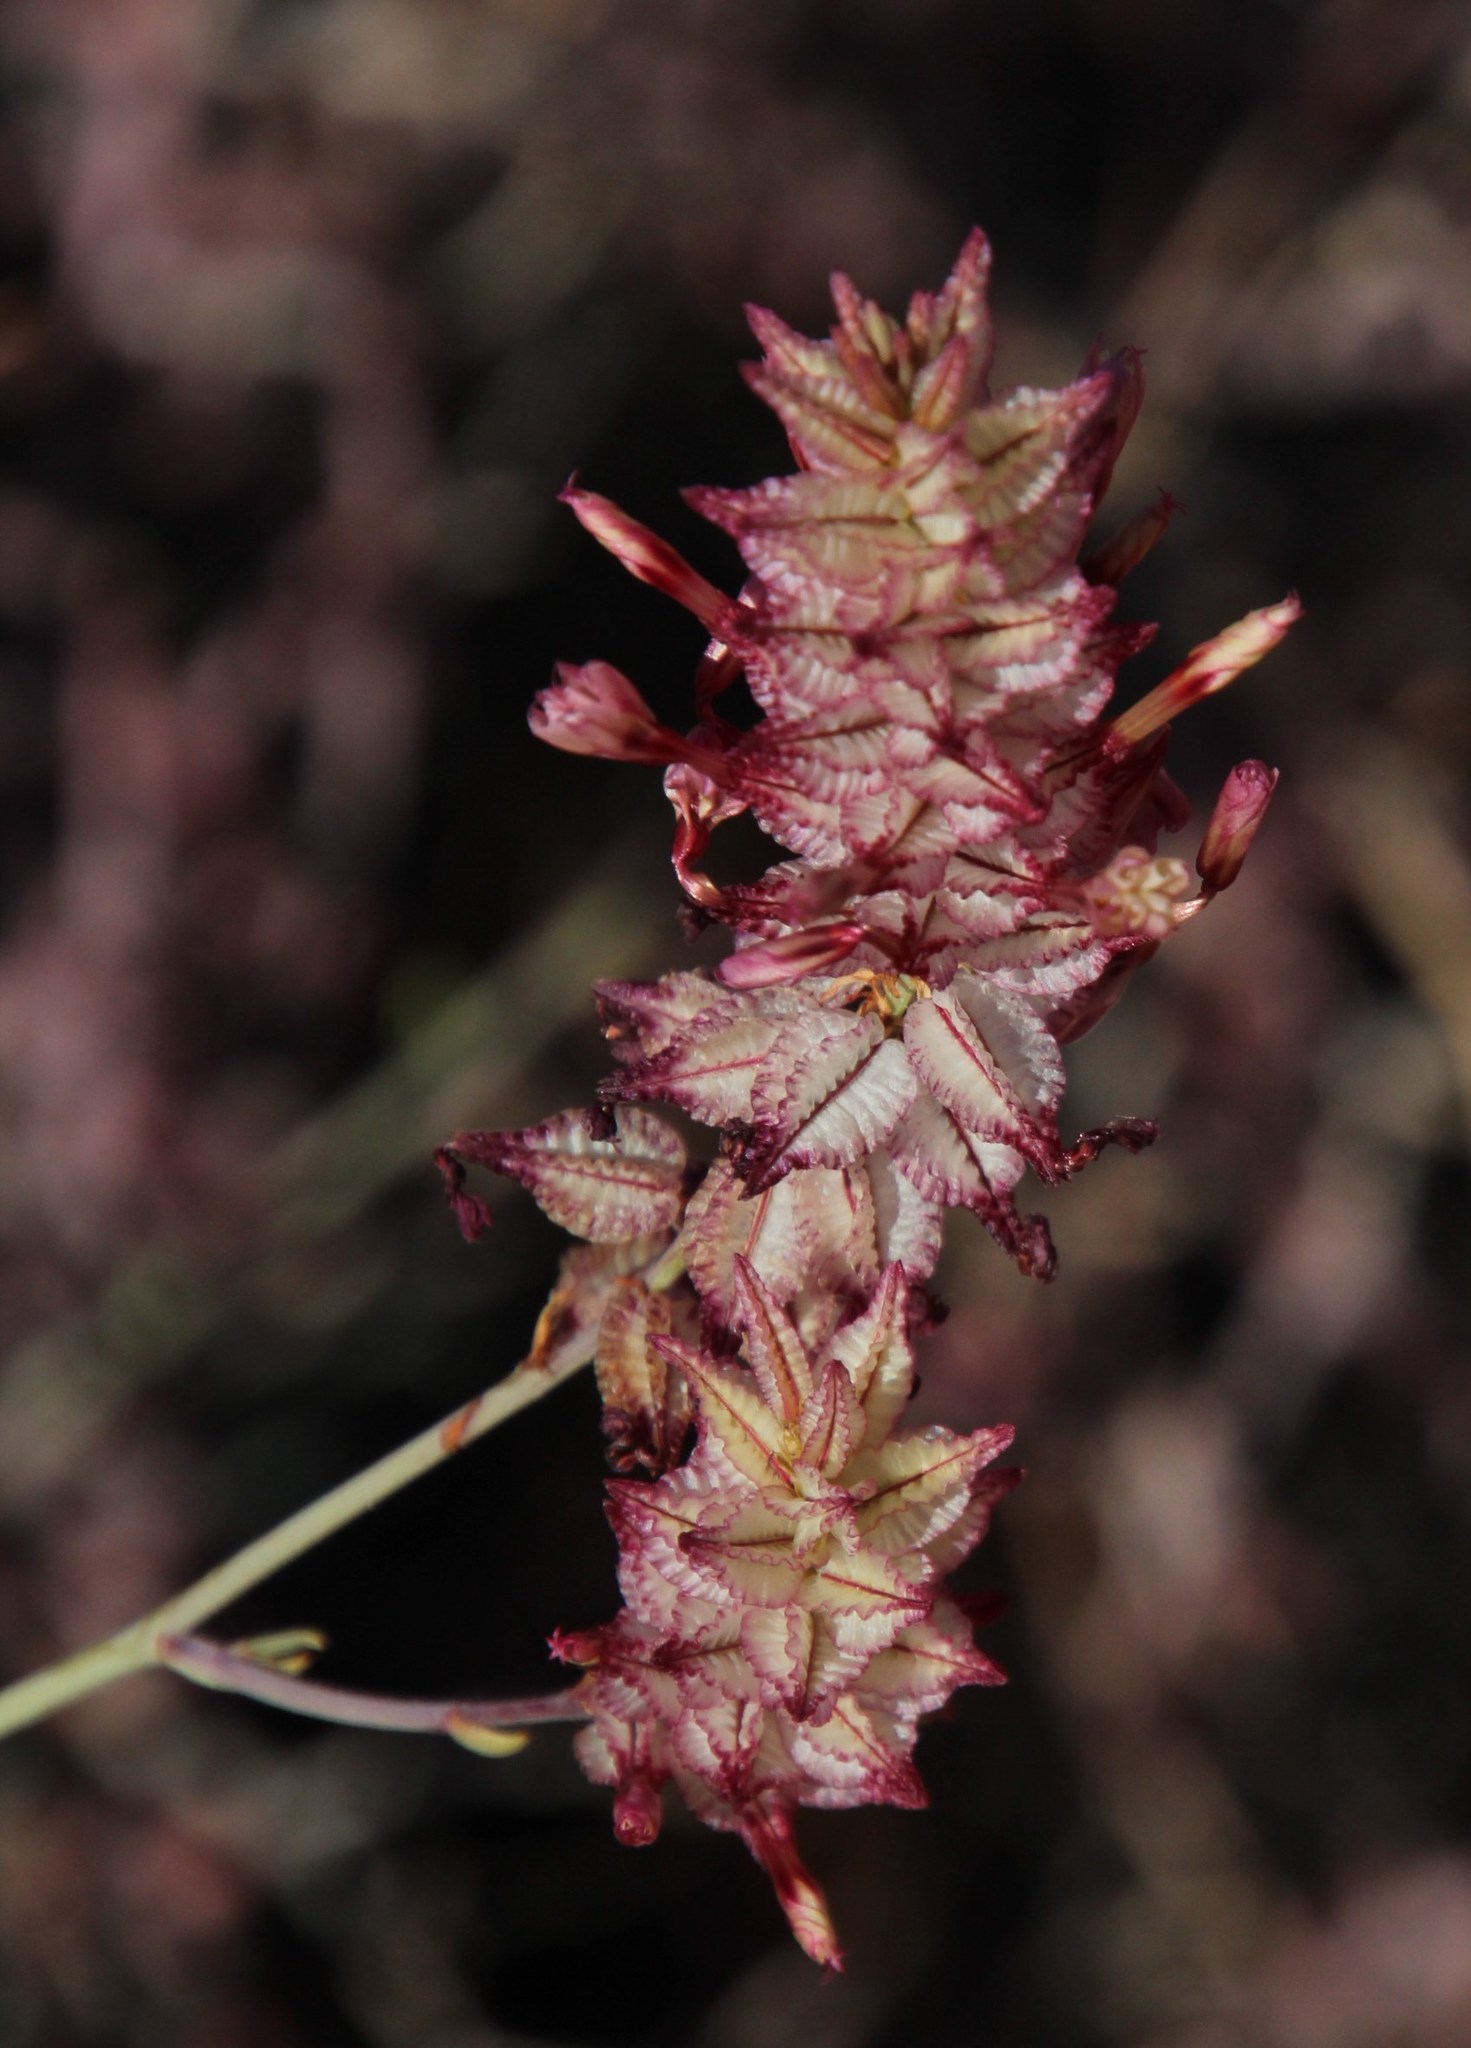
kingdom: Plantae
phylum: Tracheophyta
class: Magnoliopsida
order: Caryophyllales
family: Plumbaginaceae
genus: Dyerophytum
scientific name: Dyerophytum africanum
